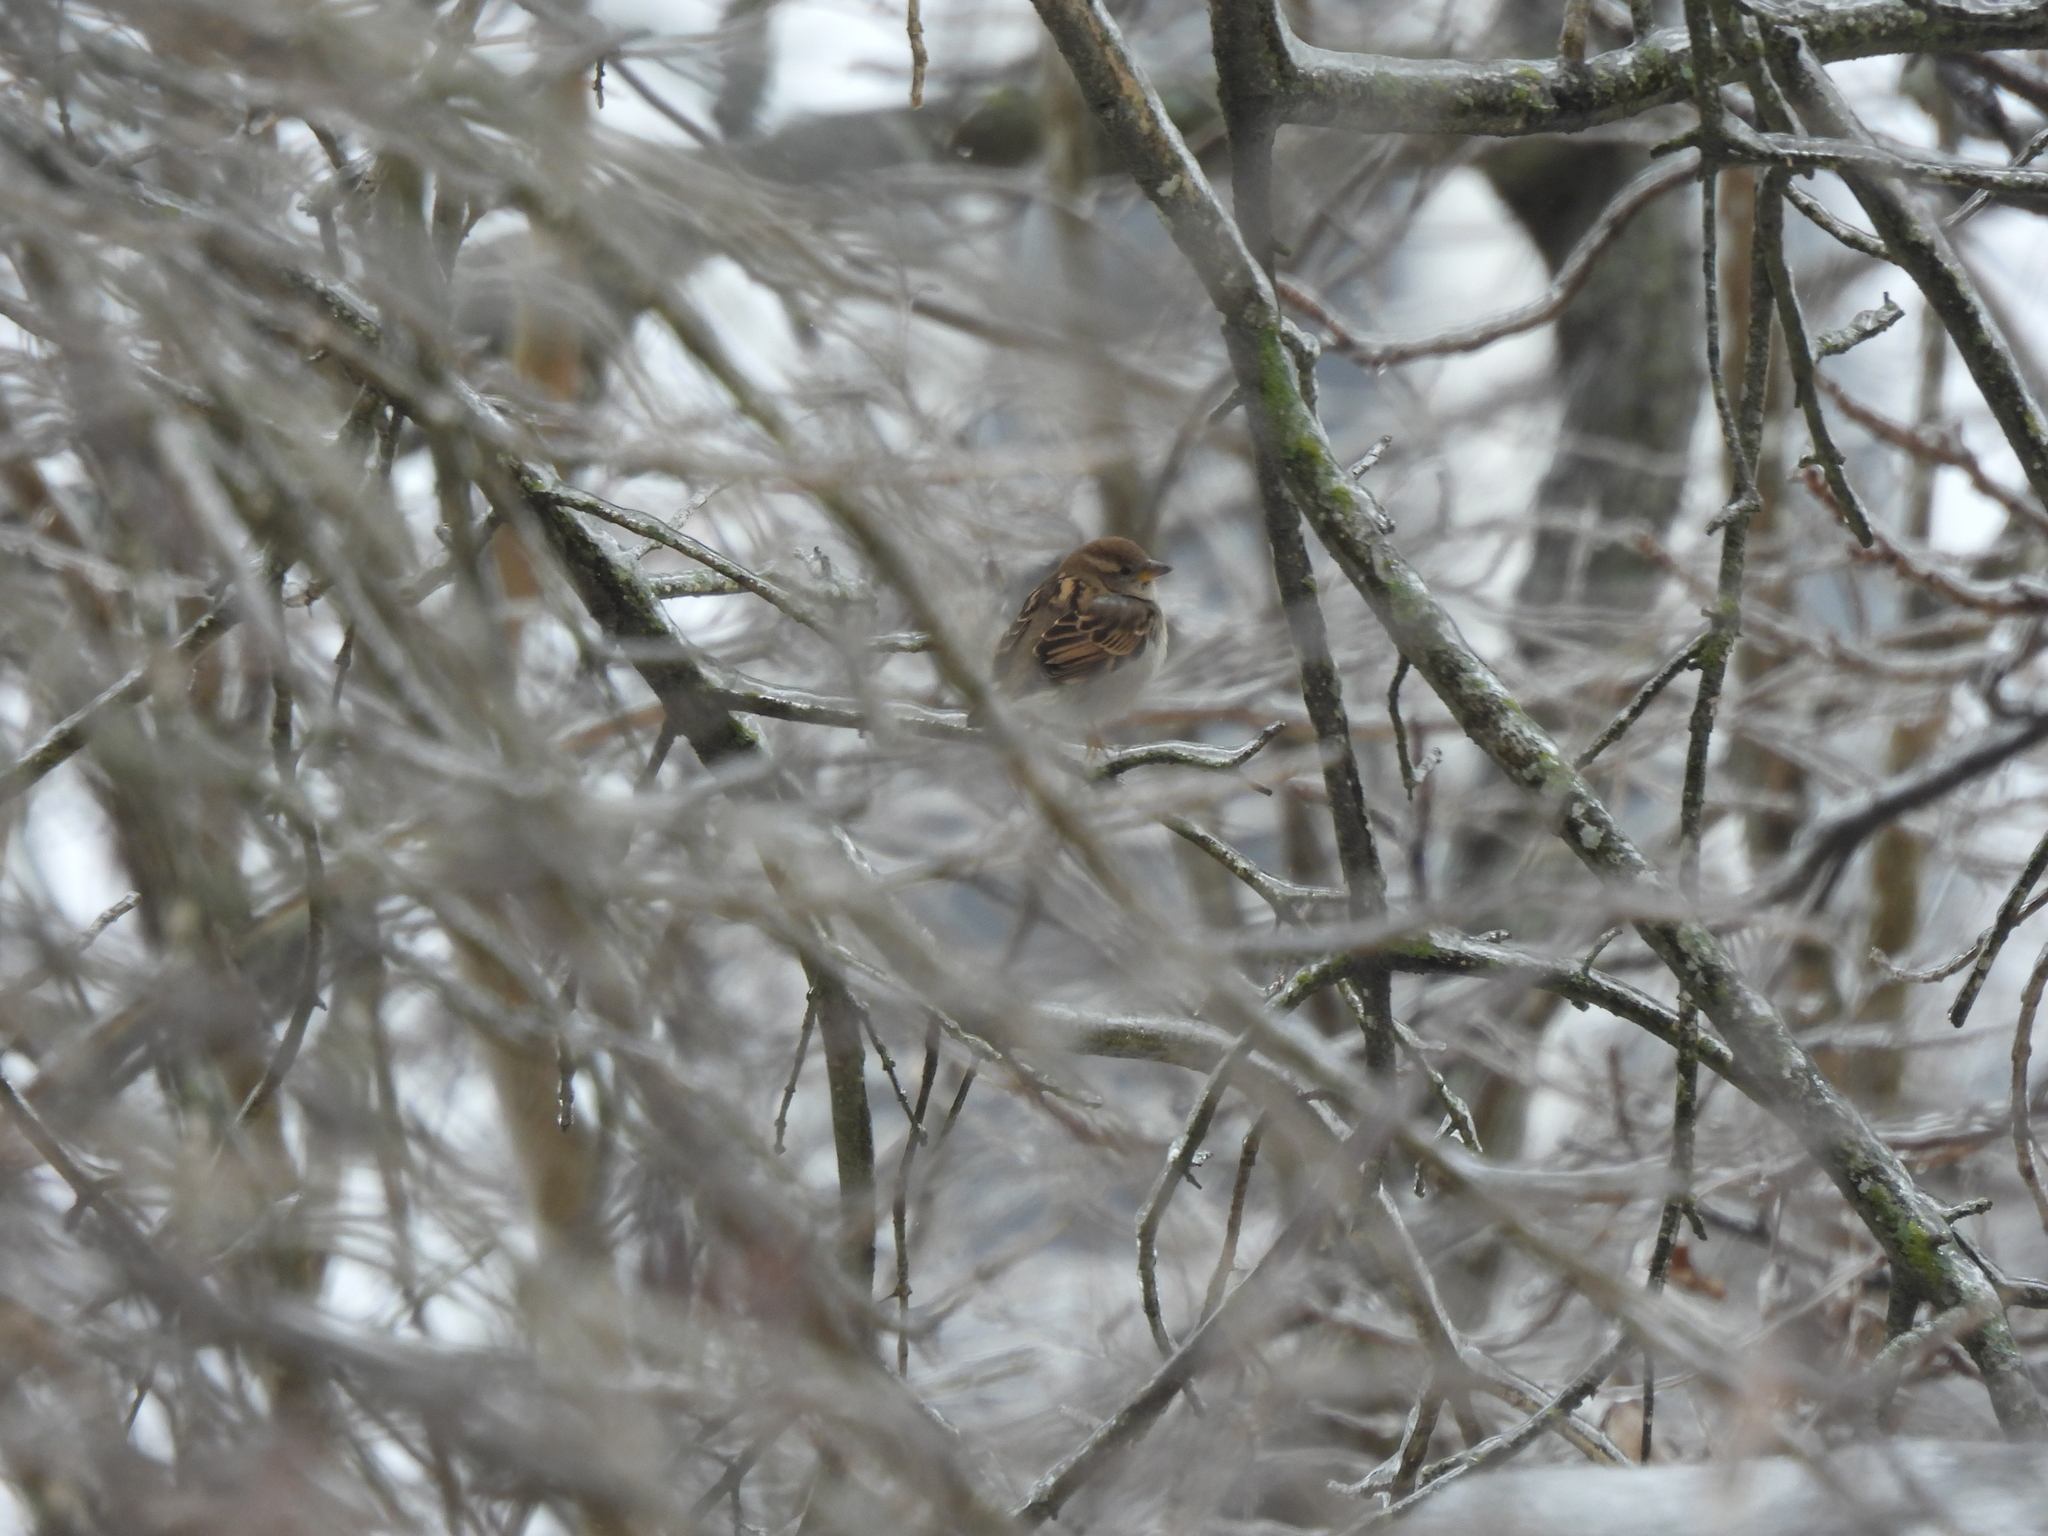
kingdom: Animalia
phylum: Chordata
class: Aves
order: Passeriformes
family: Passeridae
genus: Passer
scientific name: Passer domesticus
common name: House sparrow
